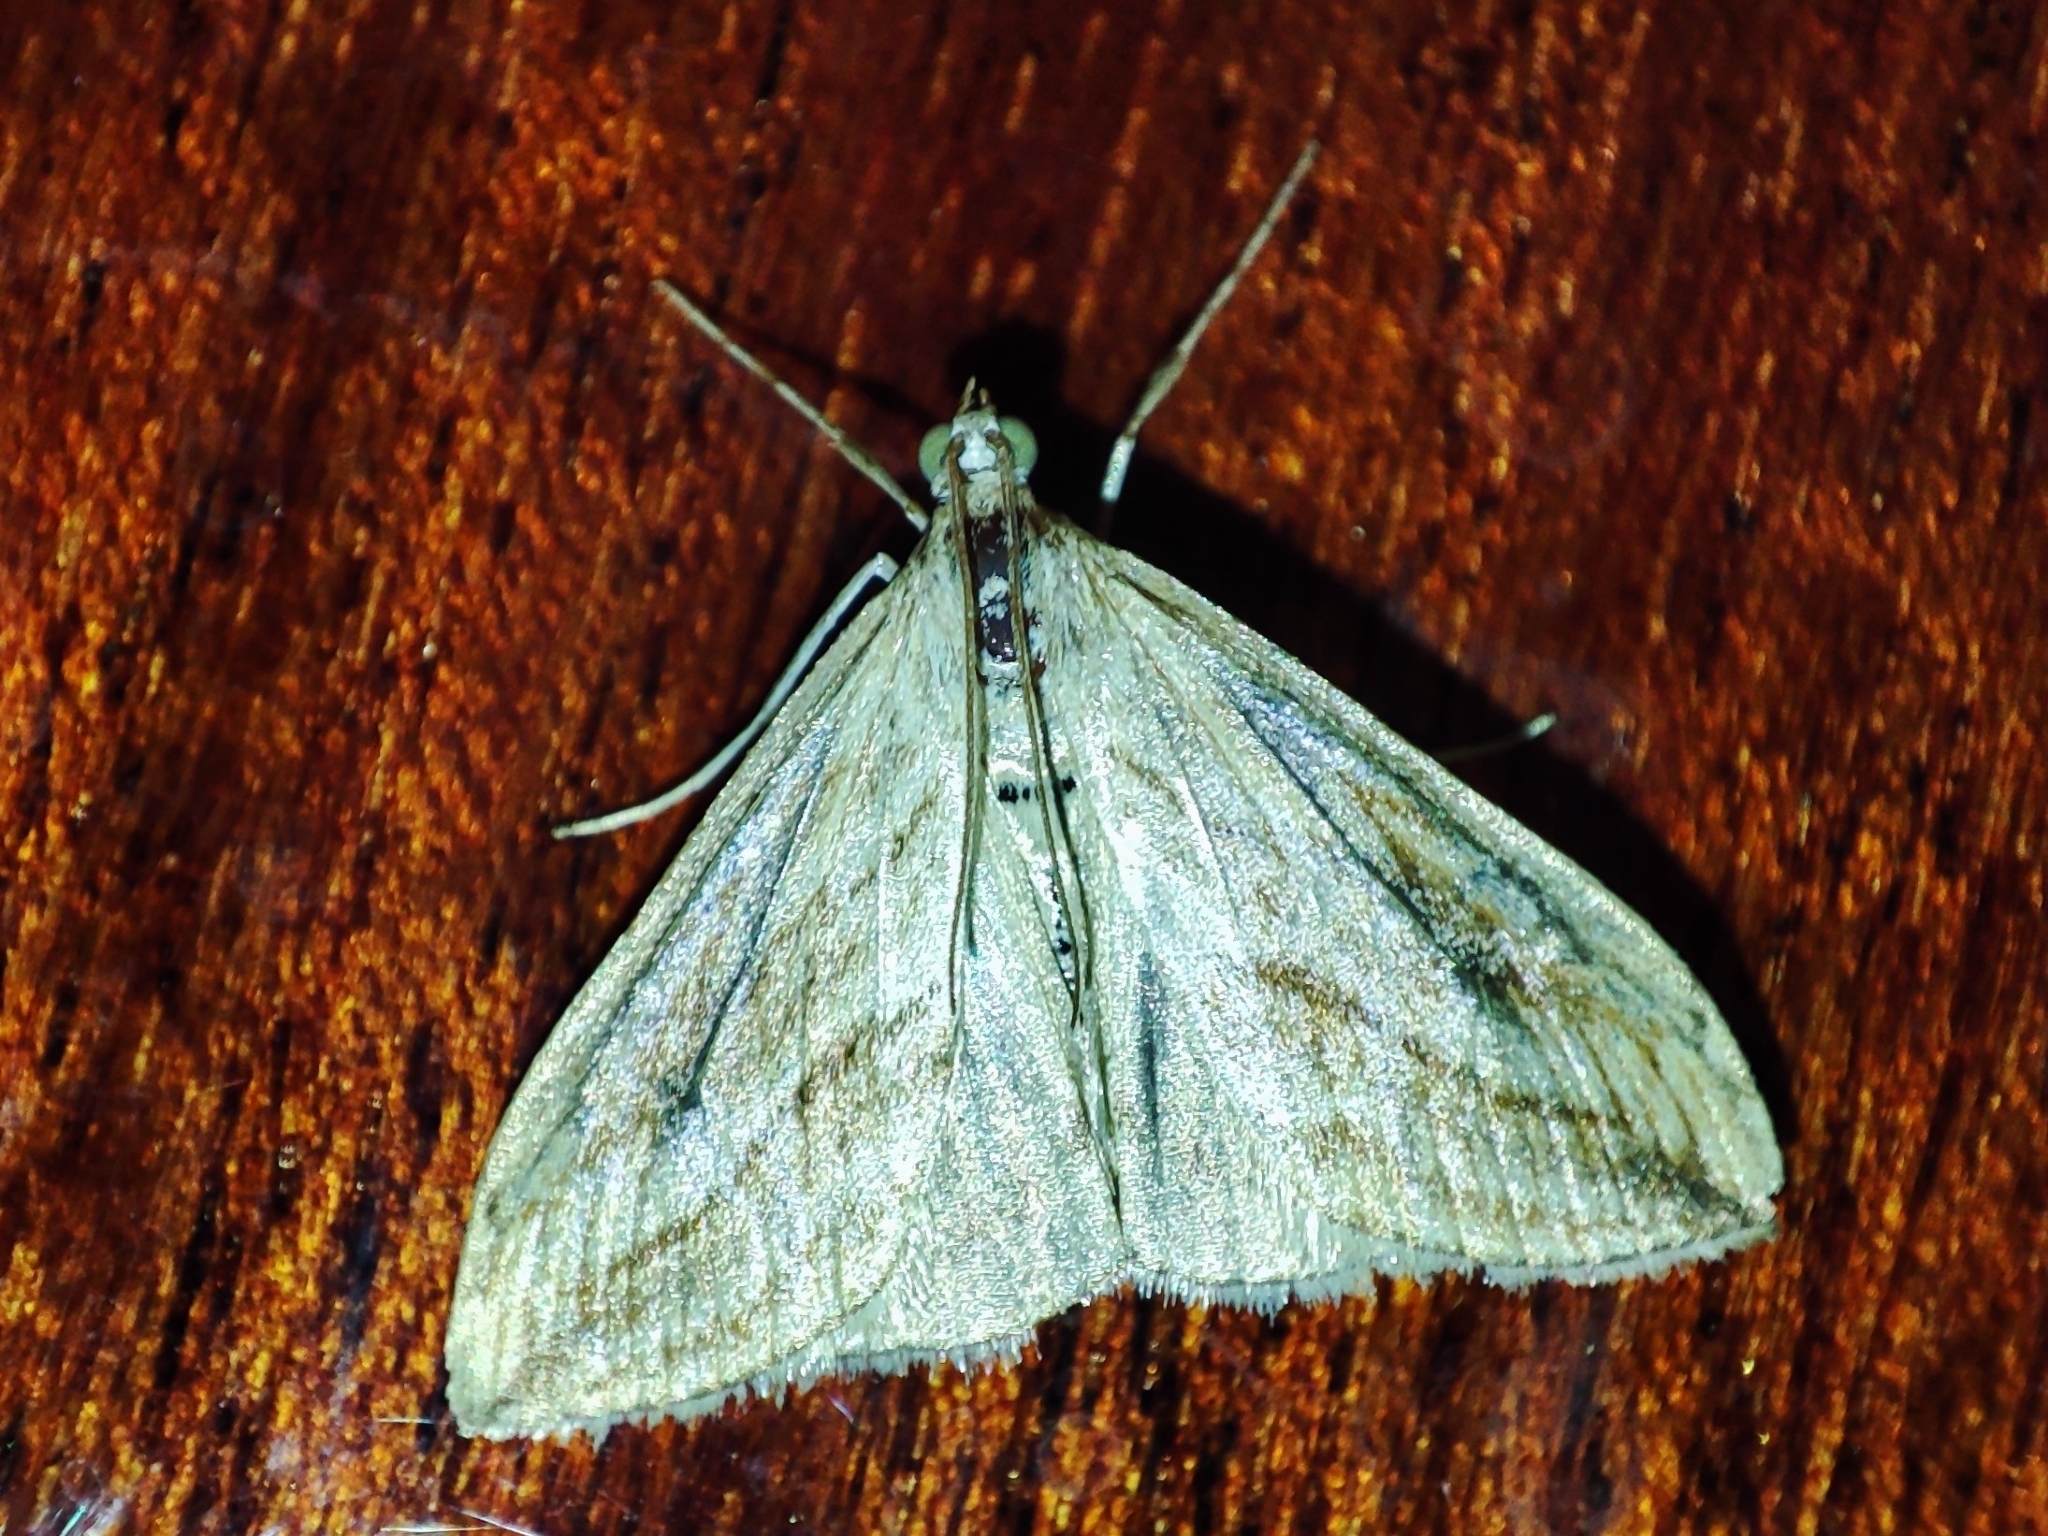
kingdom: Animalia
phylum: Arthropoda
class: Insecta
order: Lepidoptera
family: Crambidae
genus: Evergestis
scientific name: Evergestis forficalis
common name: Garden pebble
